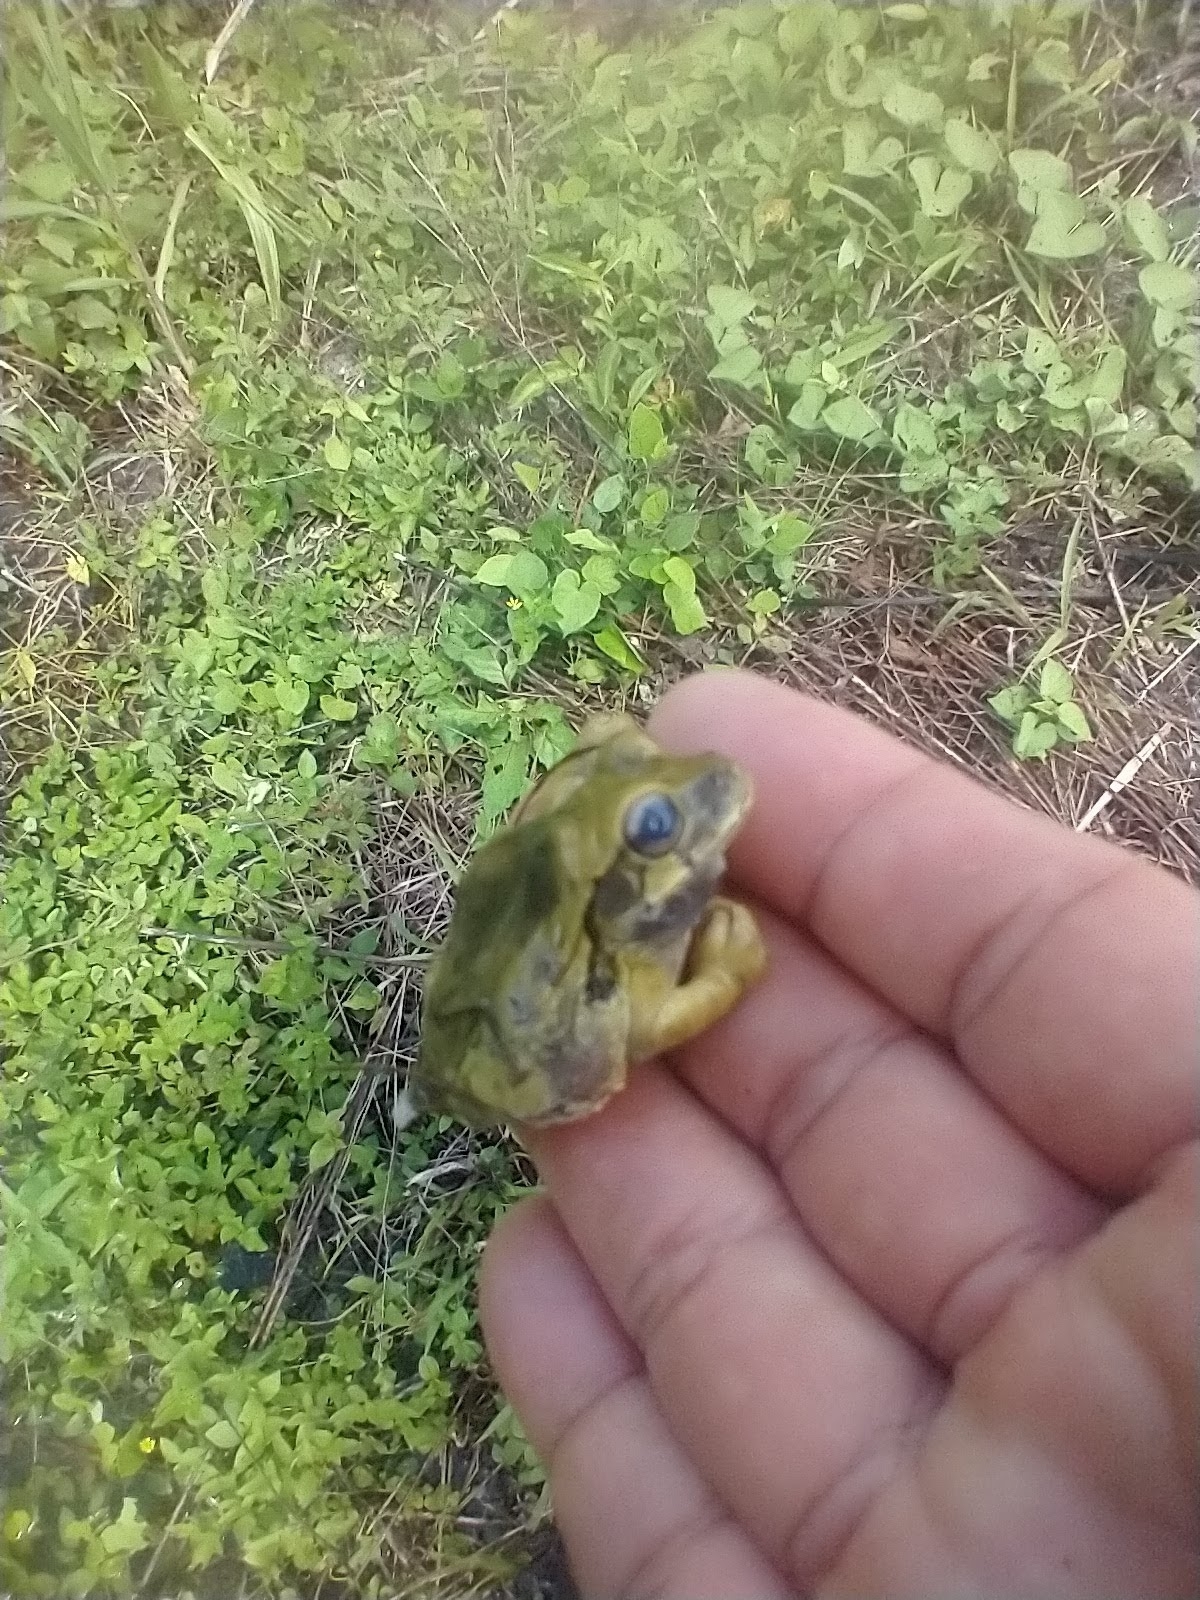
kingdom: Animalia
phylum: Chordata
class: Amphibia
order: Anura
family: Hylidae
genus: Smilisca
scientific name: Smilisca baudinii
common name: Mexican smilisca
